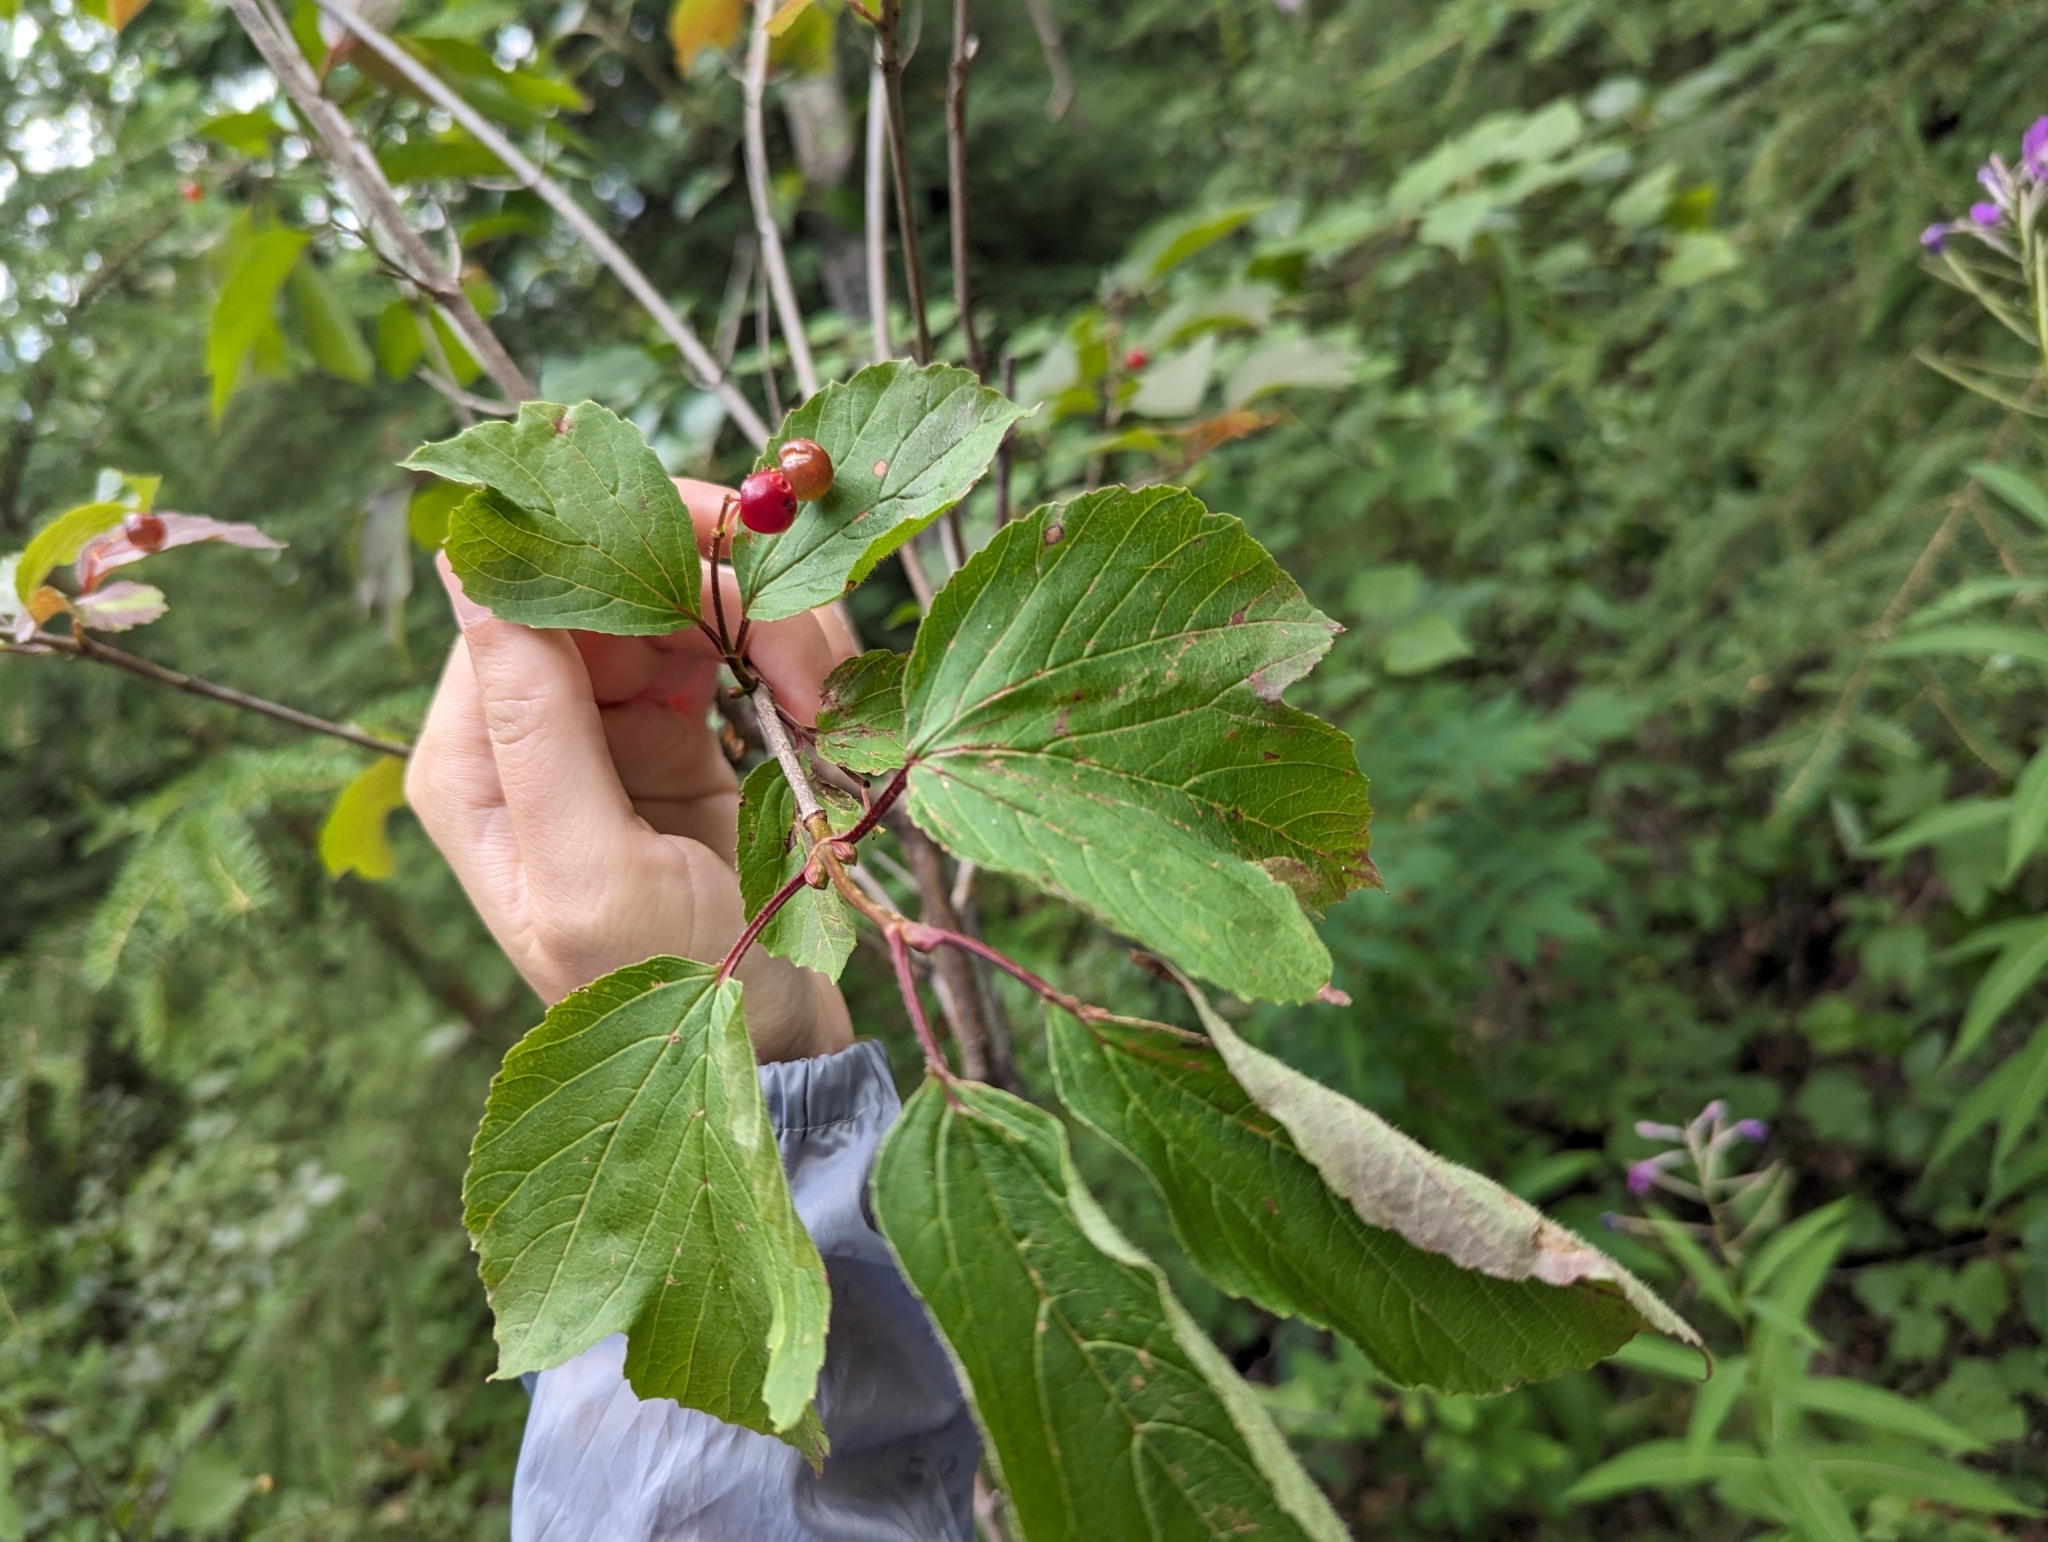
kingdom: Plantae
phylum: Tracheophyta
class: Magnoliopsida
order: Dipsacales
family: Viburnaceae
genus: Viburnum
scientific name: Viburnum edule
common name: Mooseberry
